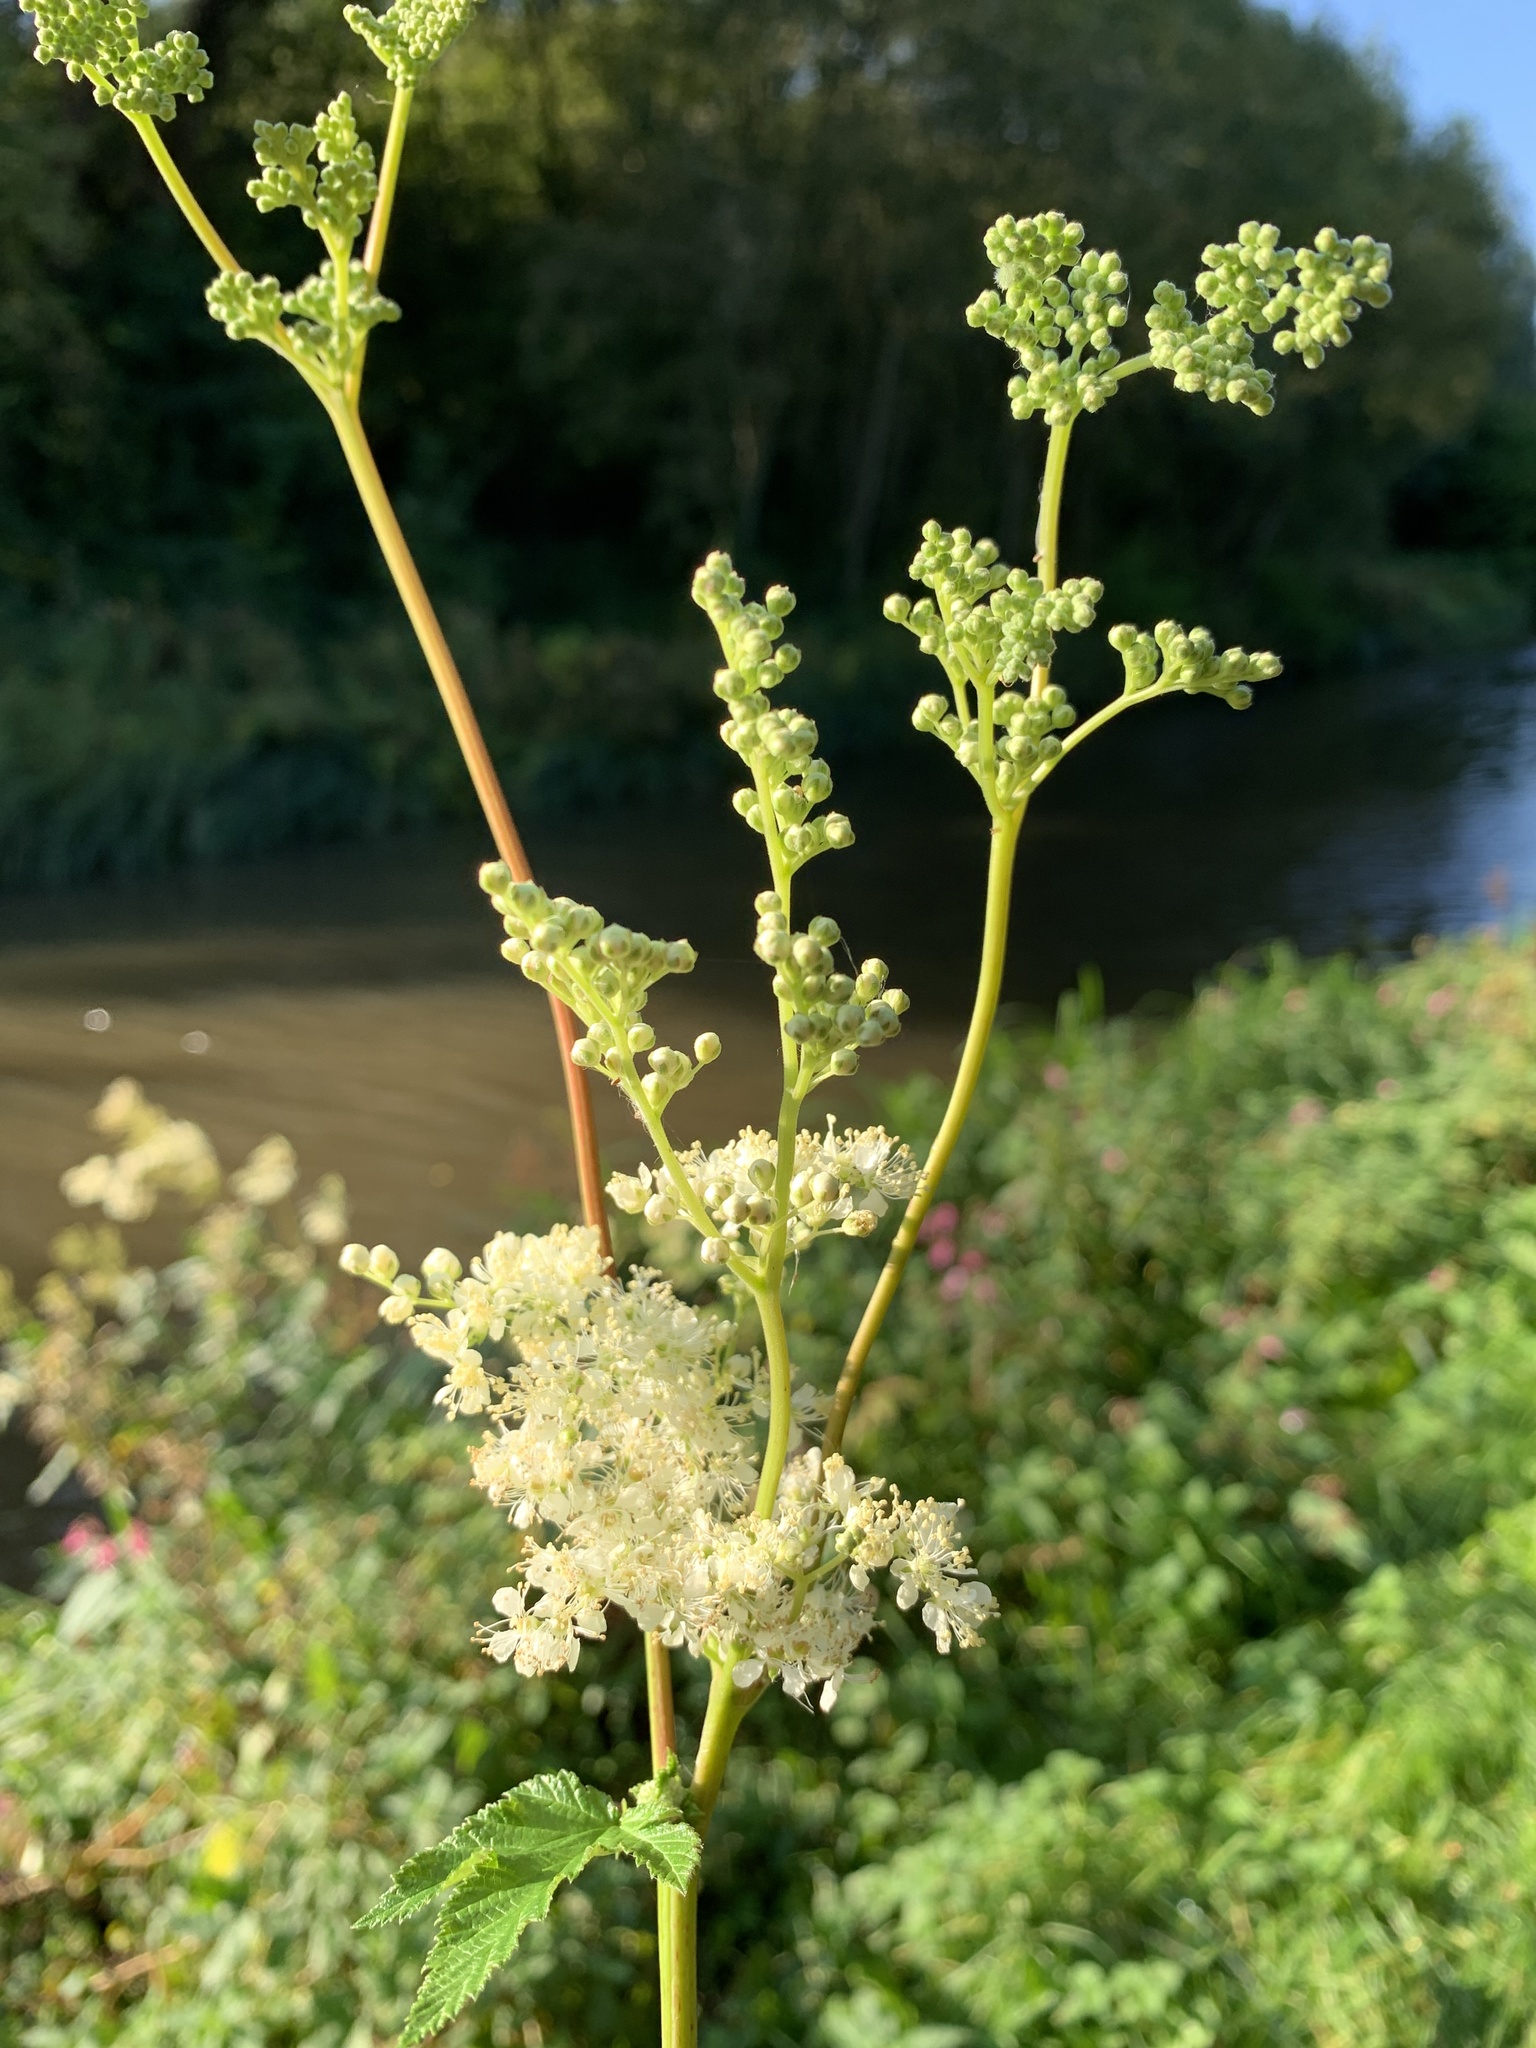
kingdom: Plantae
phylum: Tracheophyta
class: Magnoliopsida
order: Rosales
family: Rosaceae
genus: Filipendula
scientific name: Filipendula ulmaria
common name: Meadowsweet
